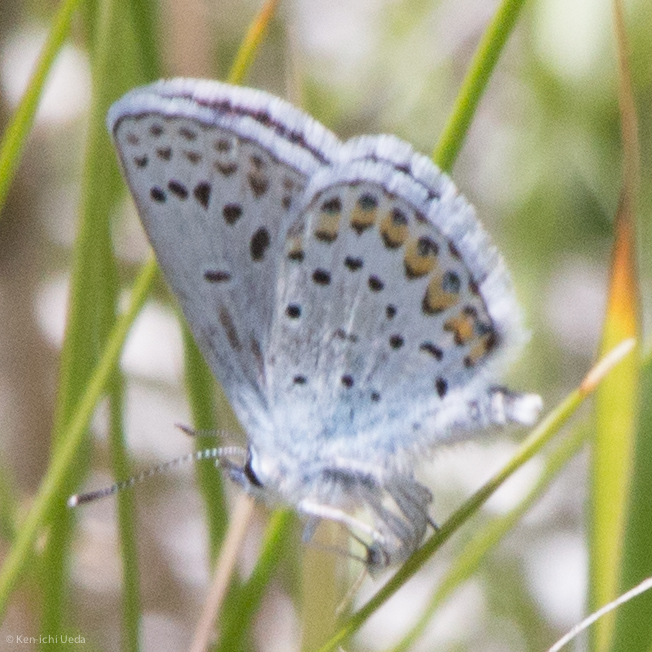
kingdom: Animalia
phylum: Arthropoda
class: Insecta
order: Lepidoptera
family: Lycaenidae
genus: Lycaeides
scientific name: Lycaeides melissa
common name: Melissa blue
